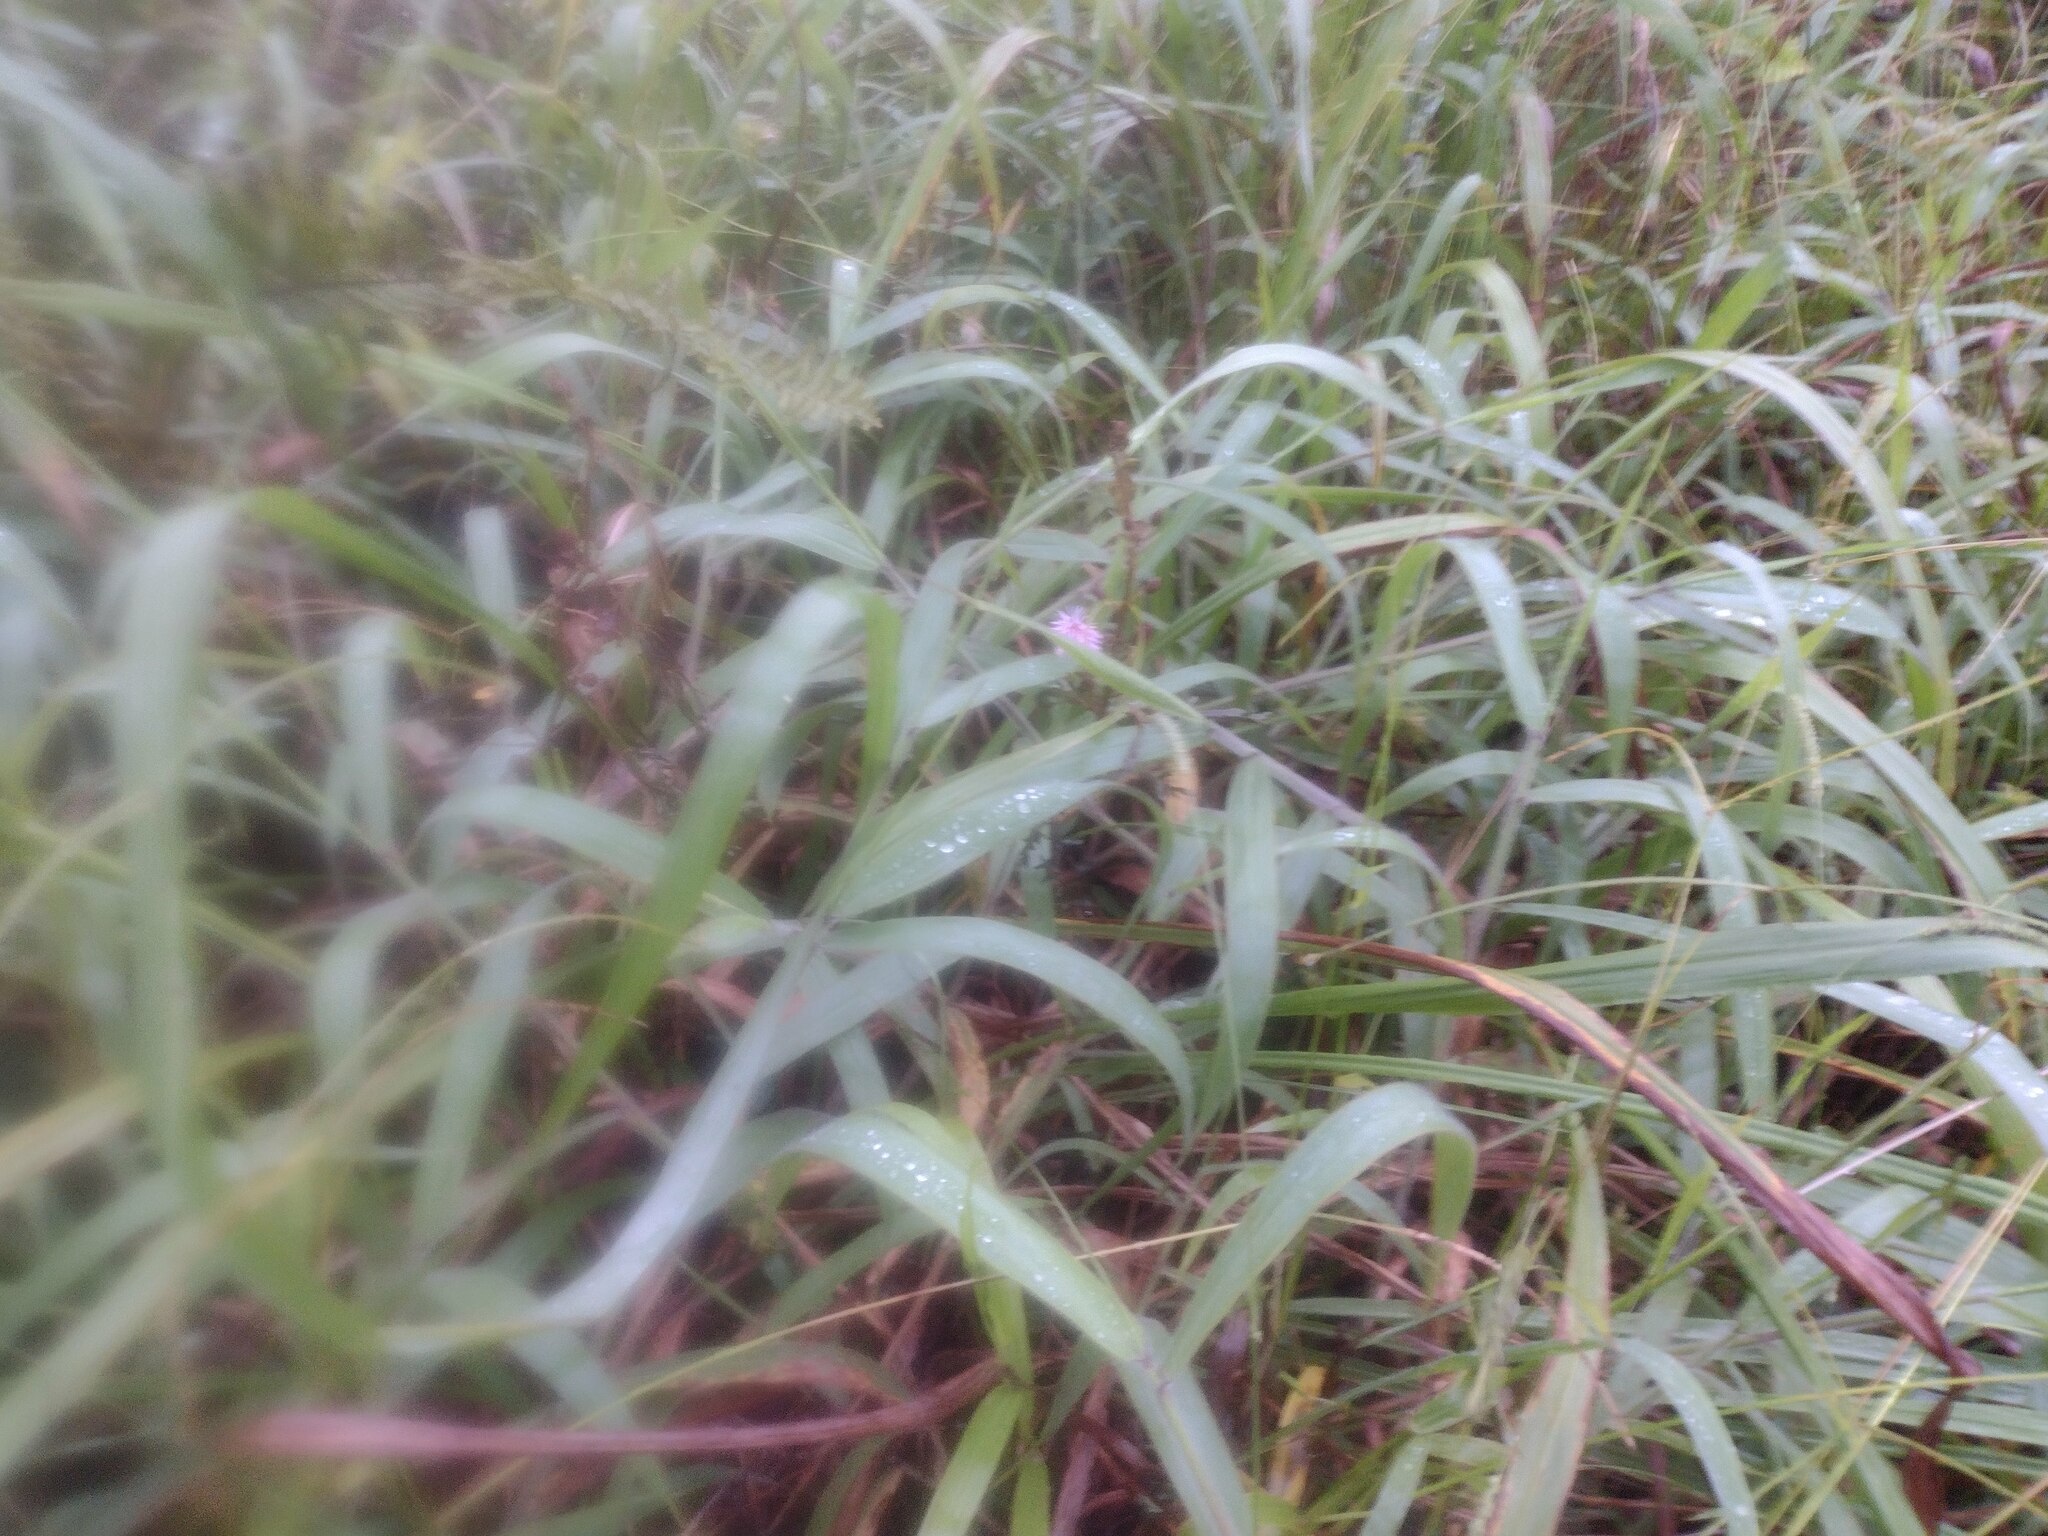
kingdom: Plantae
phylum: Tracheophyta
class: Liliopsida
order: Poales
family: Poaceae
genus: Melinis
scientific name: Melinis minutiflora
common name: Molassesgrass
